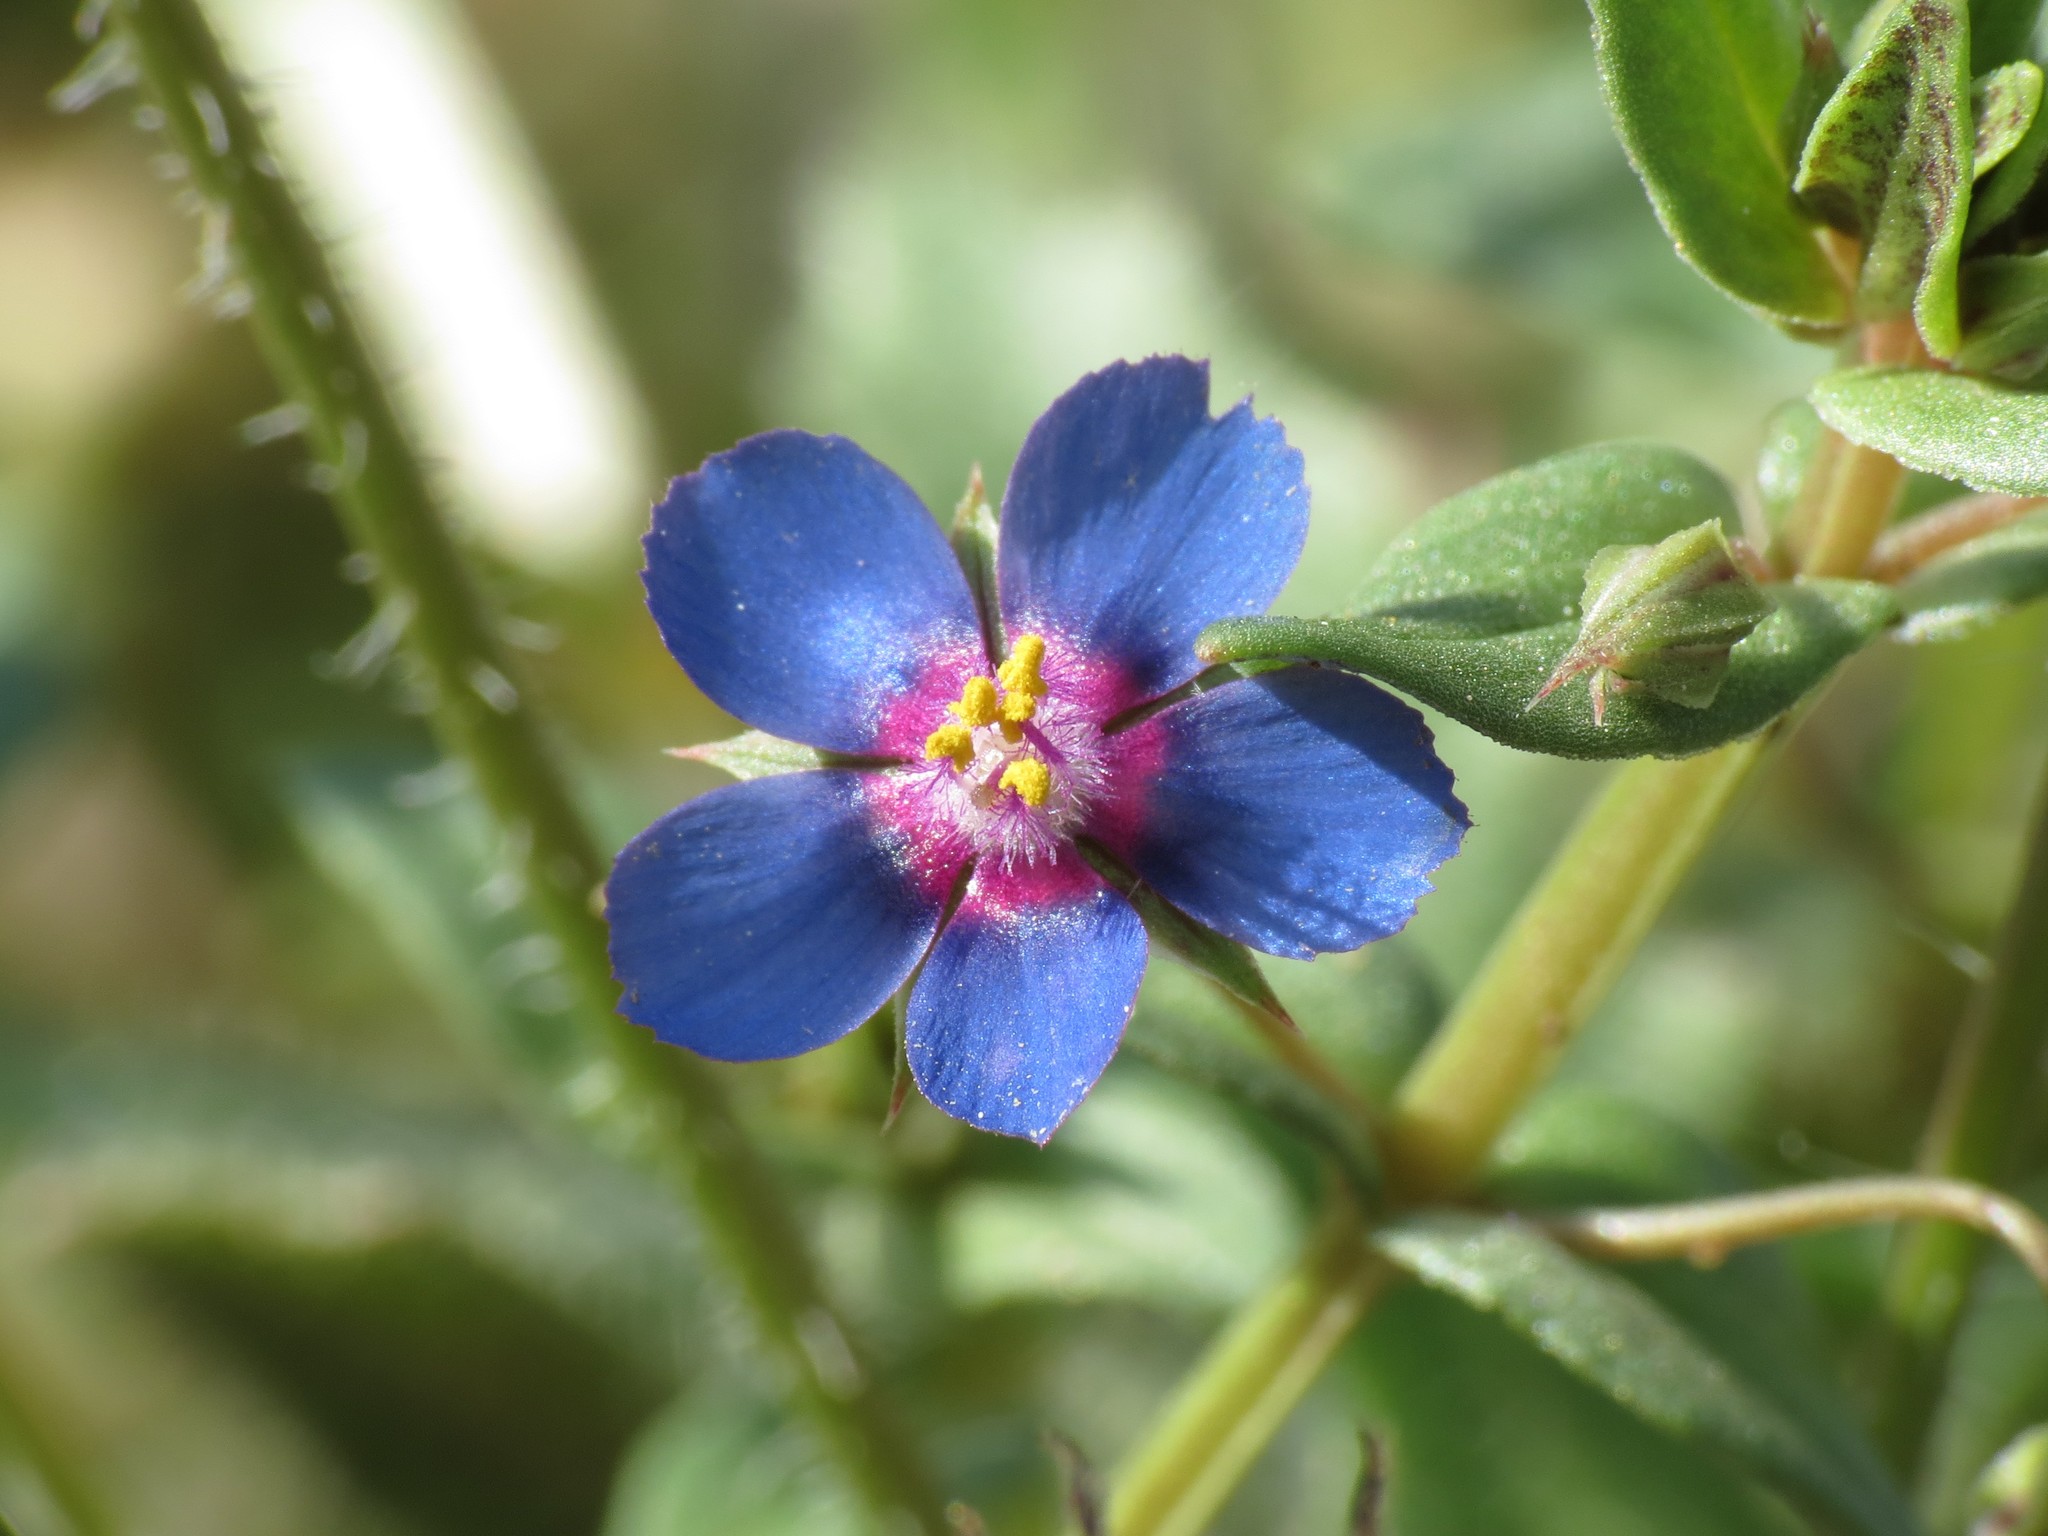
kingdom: Plantae
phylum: Tracheophyta
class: Magnoliopsida
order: Ericales
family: Primulaceae
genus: Lysimachia
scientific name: Lysimachia arvensis
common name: Scarlet pimpernel
